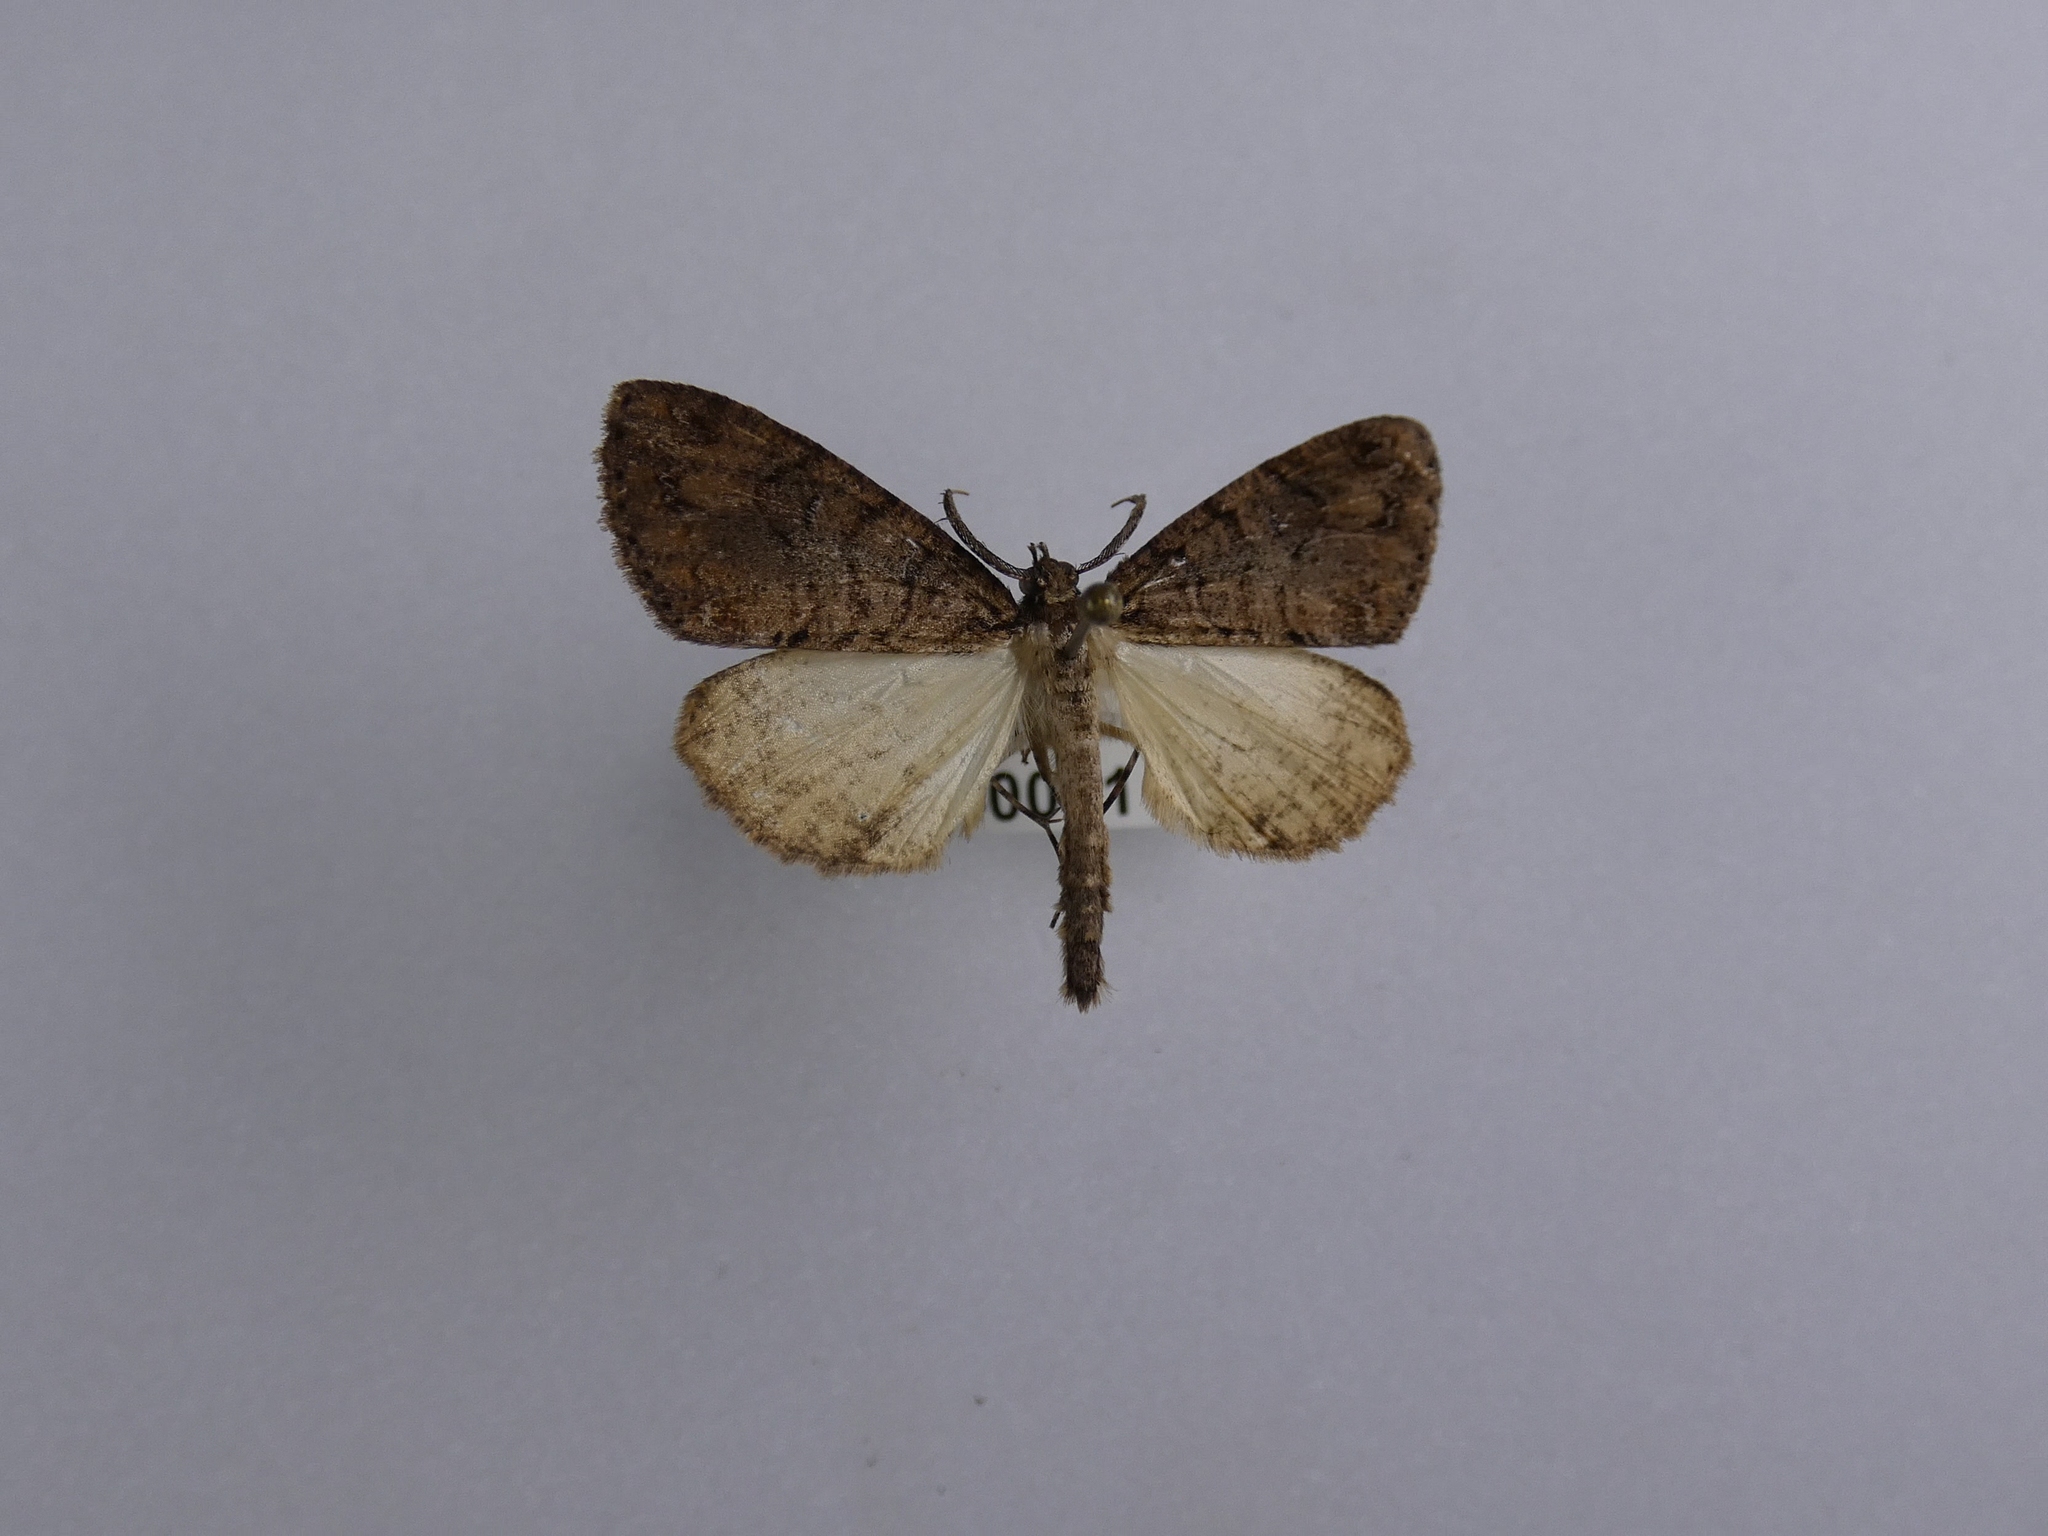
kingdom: Animalia
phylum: Arthropoda
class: Insecta
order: Lepidoptera
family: Geometridae
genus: Pseudocoremia
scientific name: Pseudocoremia suavis
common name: Common forest looper
